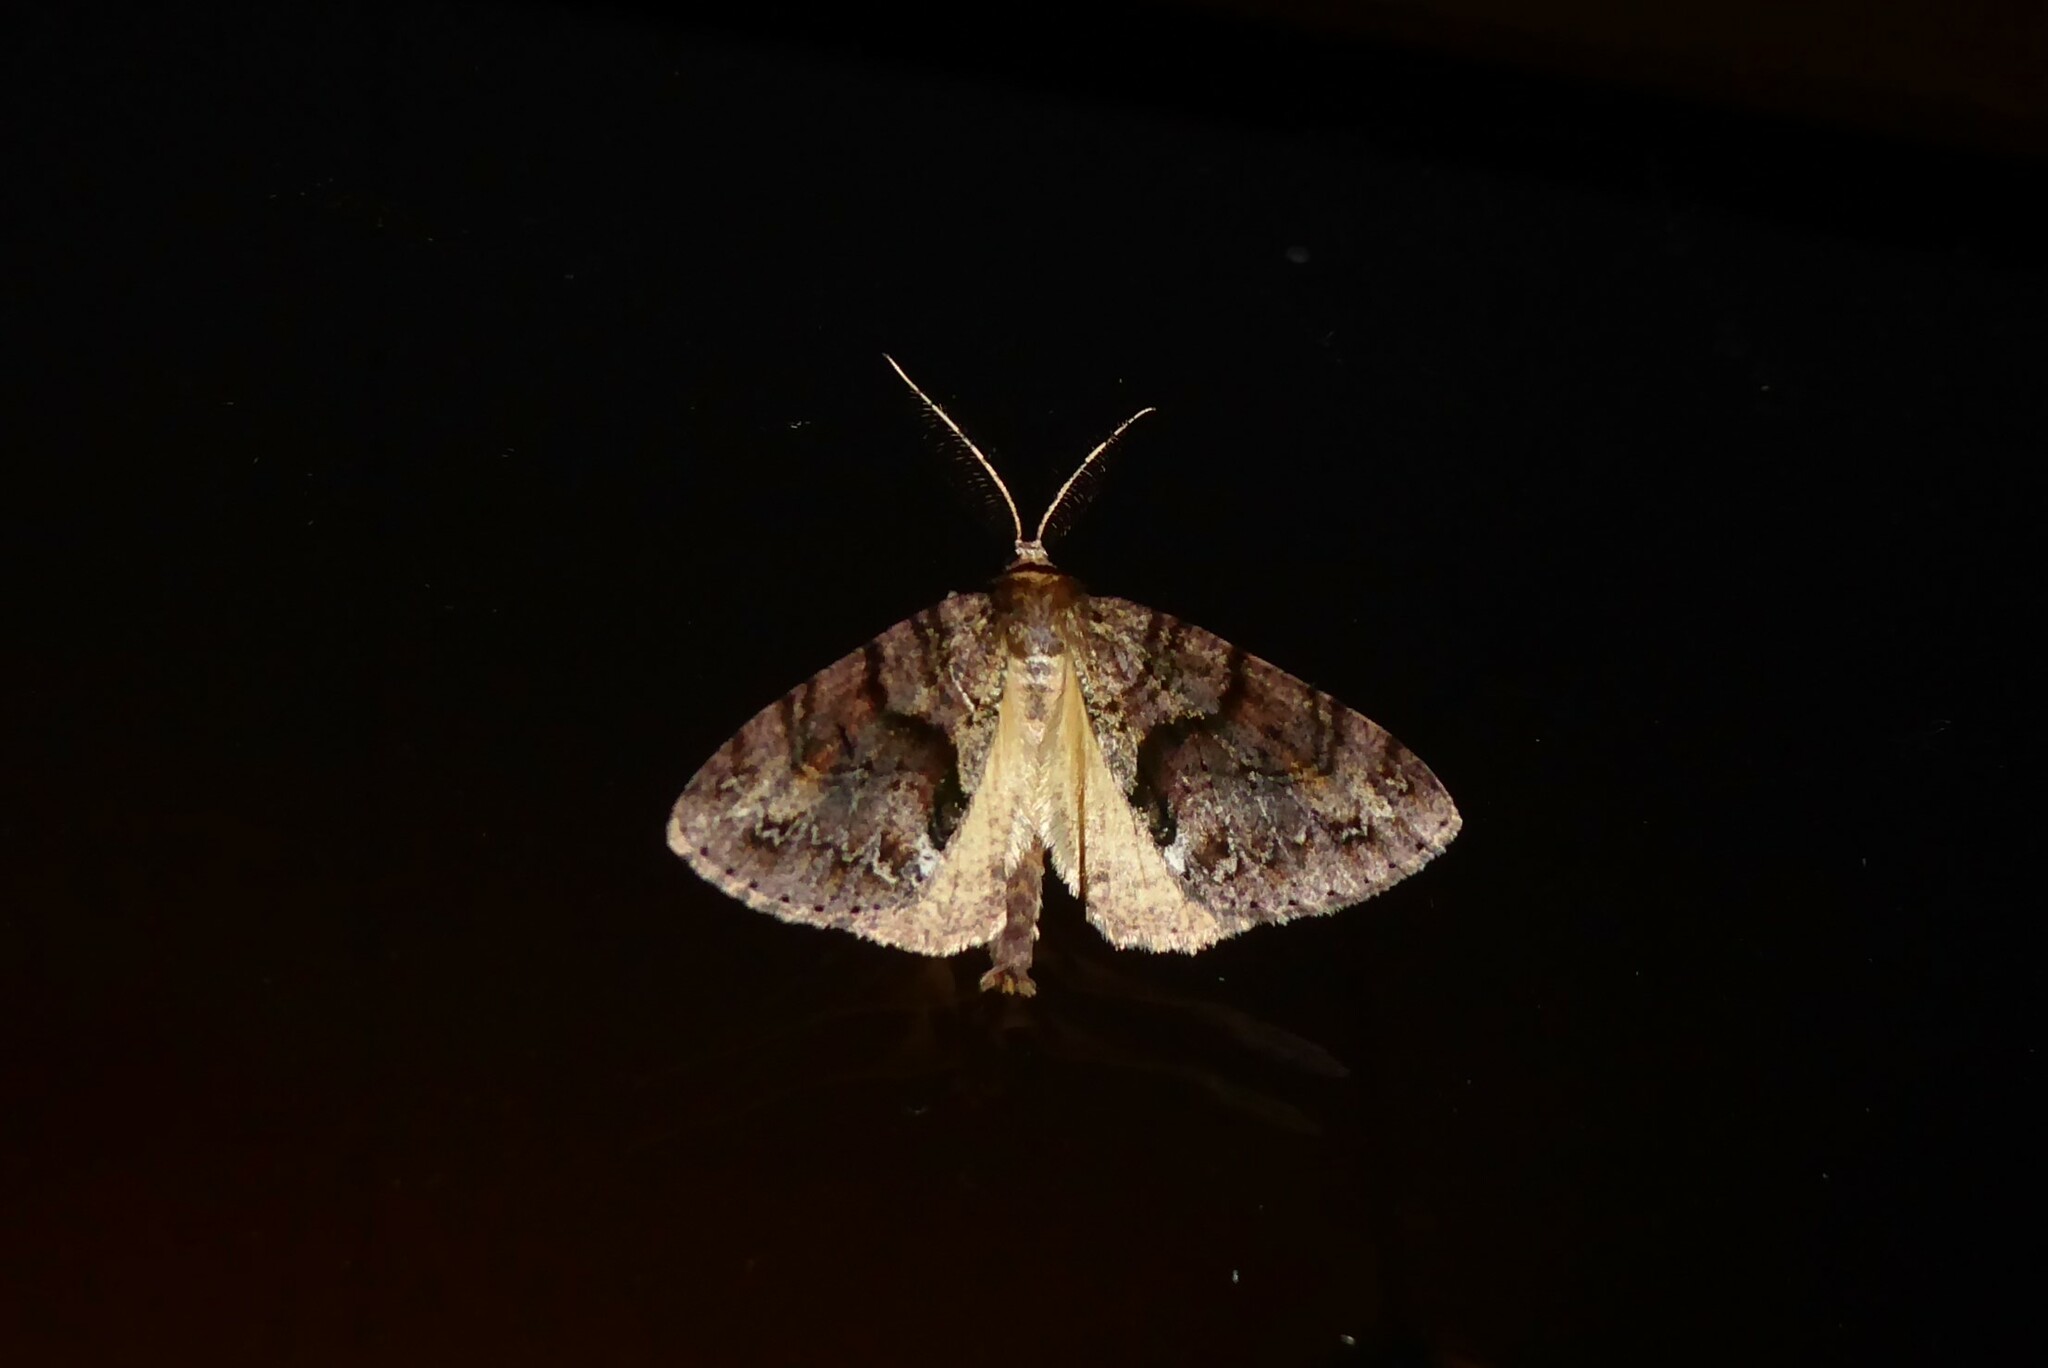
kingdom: Animalia
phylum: Arthropoda
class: Insecta
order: Lepidoptera
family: Geometridae
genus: Pseudocoremia
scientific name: Pseudocoremia suavis
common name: Common forest looper
